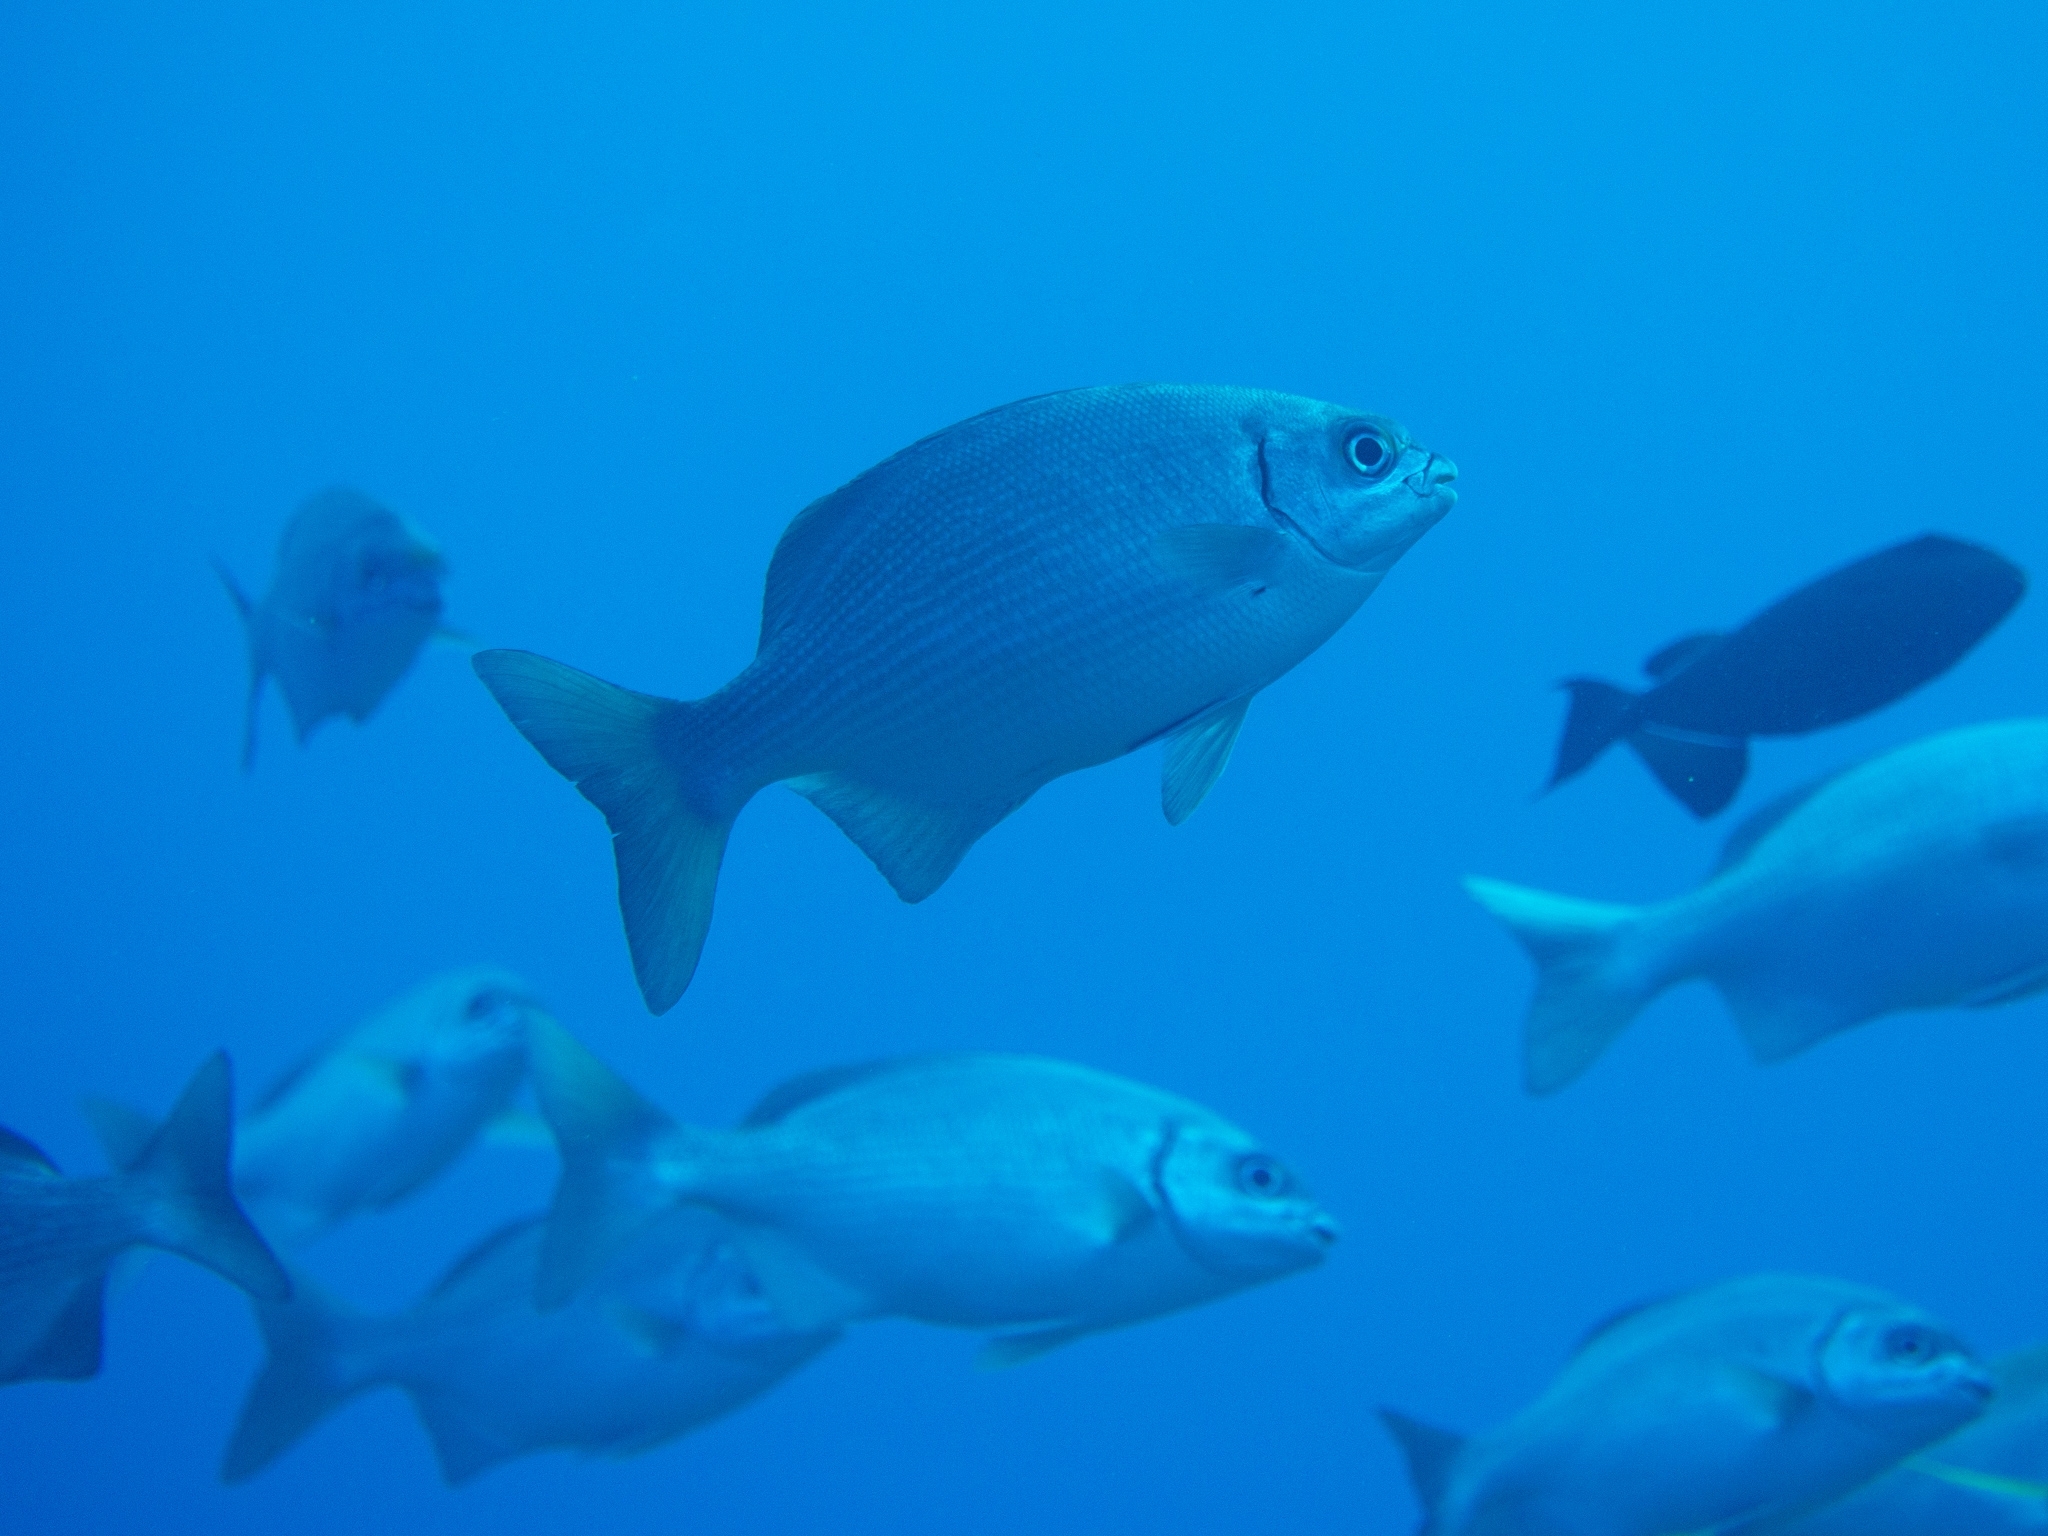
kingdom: Animalia
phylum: Chordata
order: Perciformes
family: Kyphosidae
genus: Kyphosus
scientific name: Kyphosus sectatrix
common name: Bermuda chub
